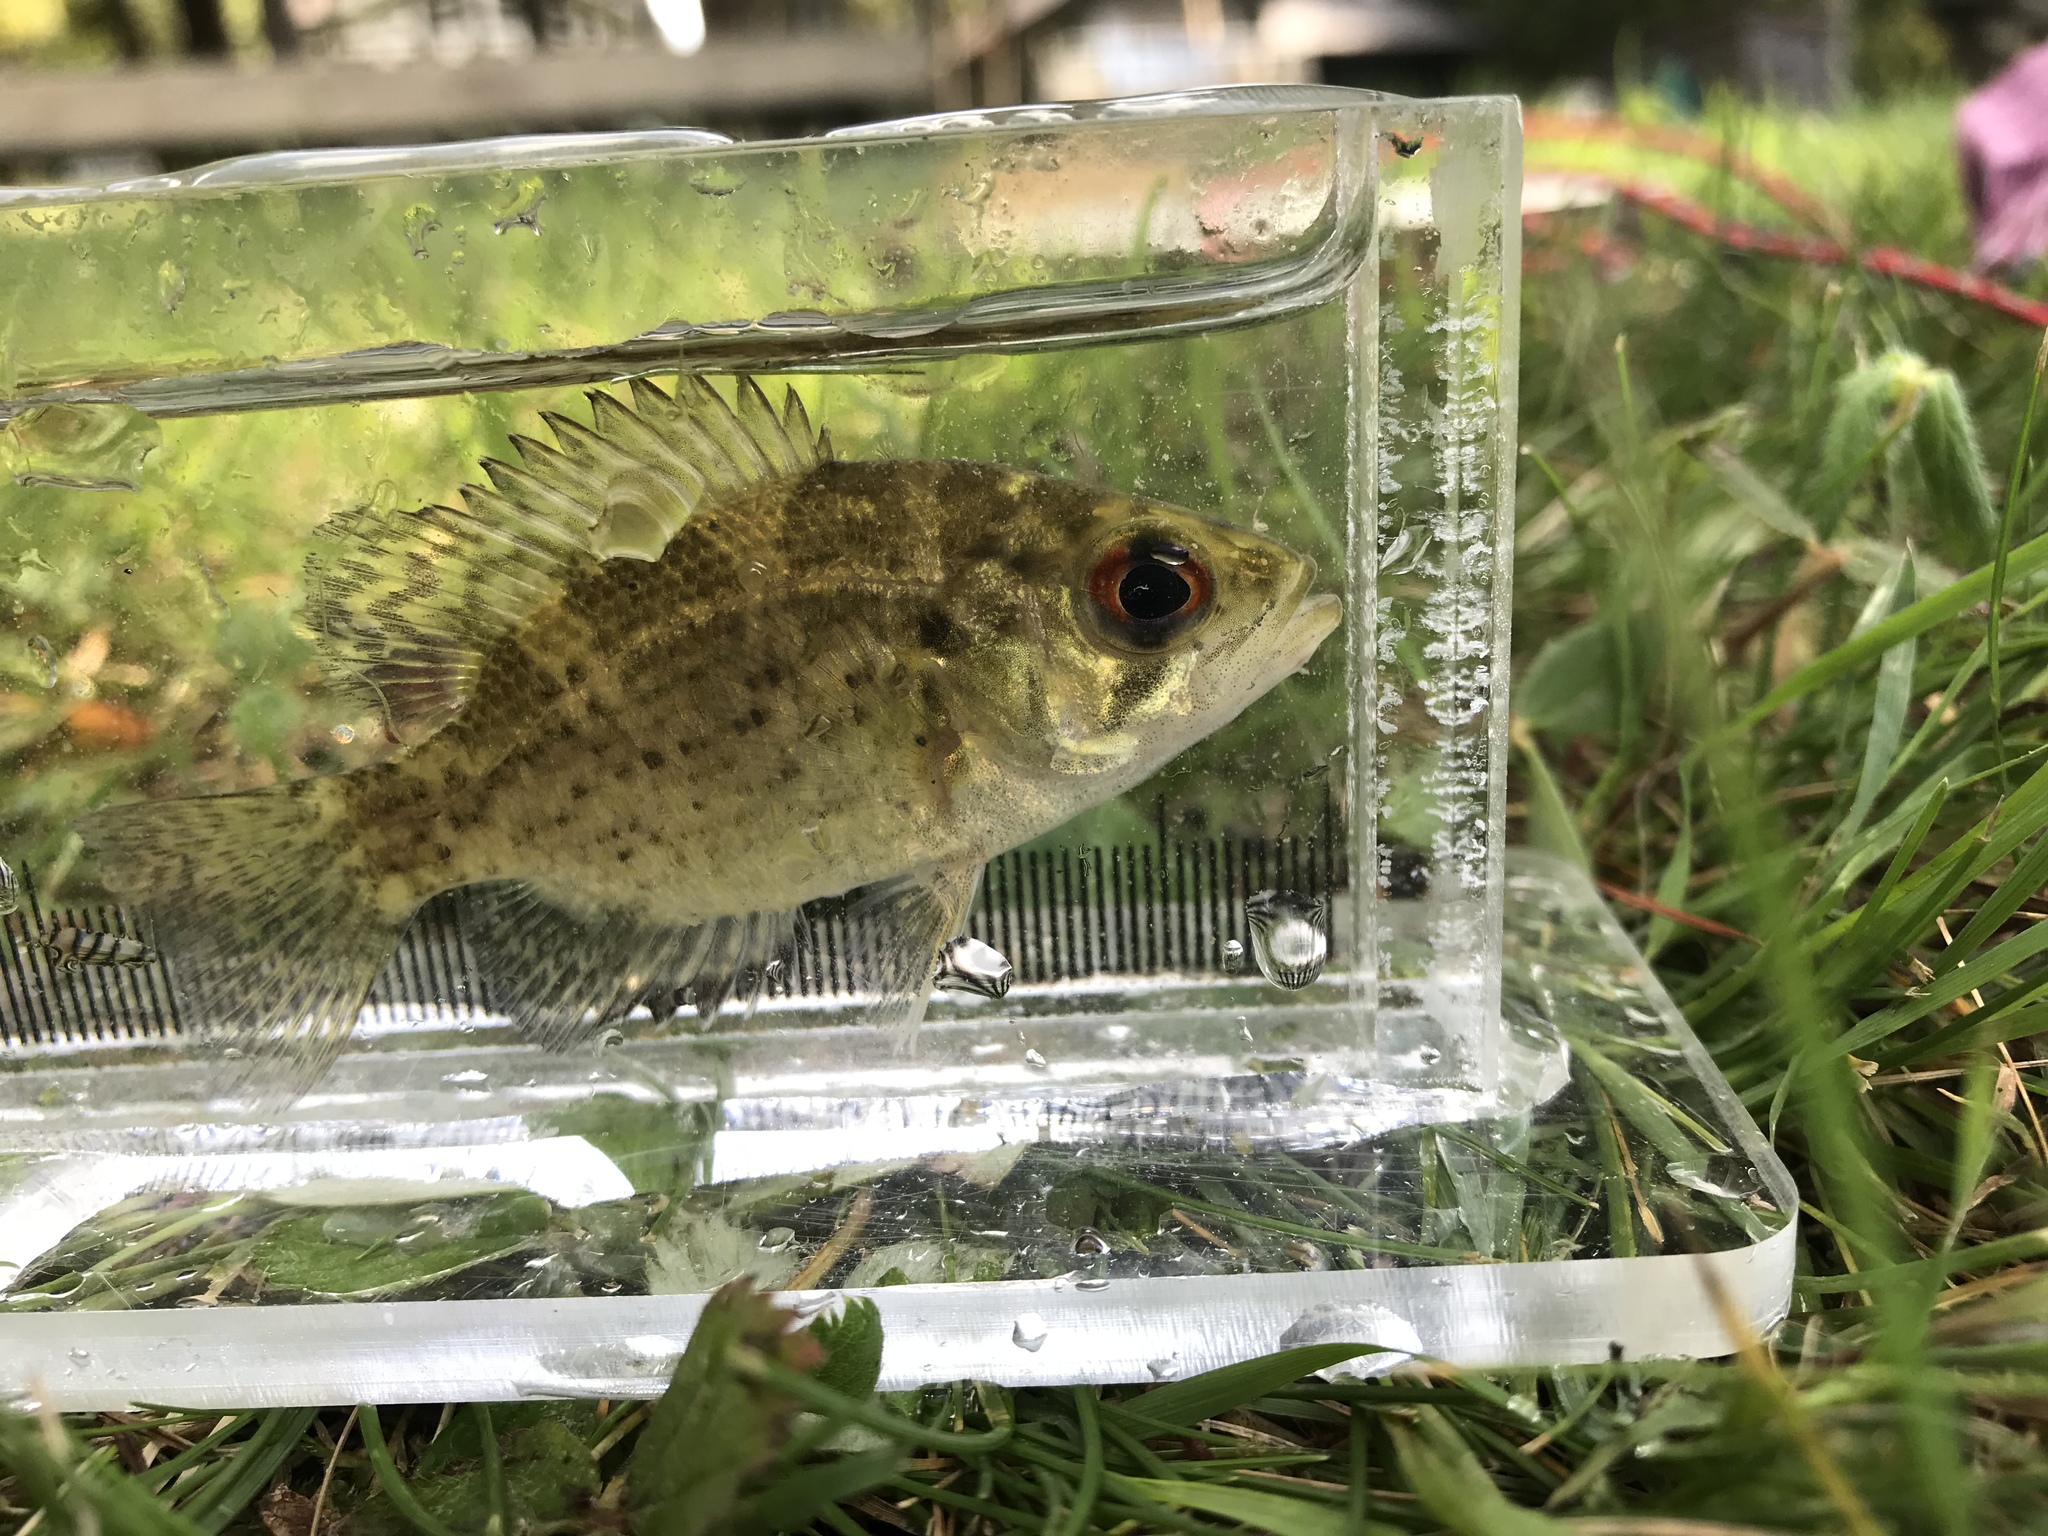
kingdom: Animalia
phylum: Chordata
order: Perciformes
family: Centrarchidae
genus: Ambloplites
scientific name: Ambloplites rupestris
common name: Rock bass
